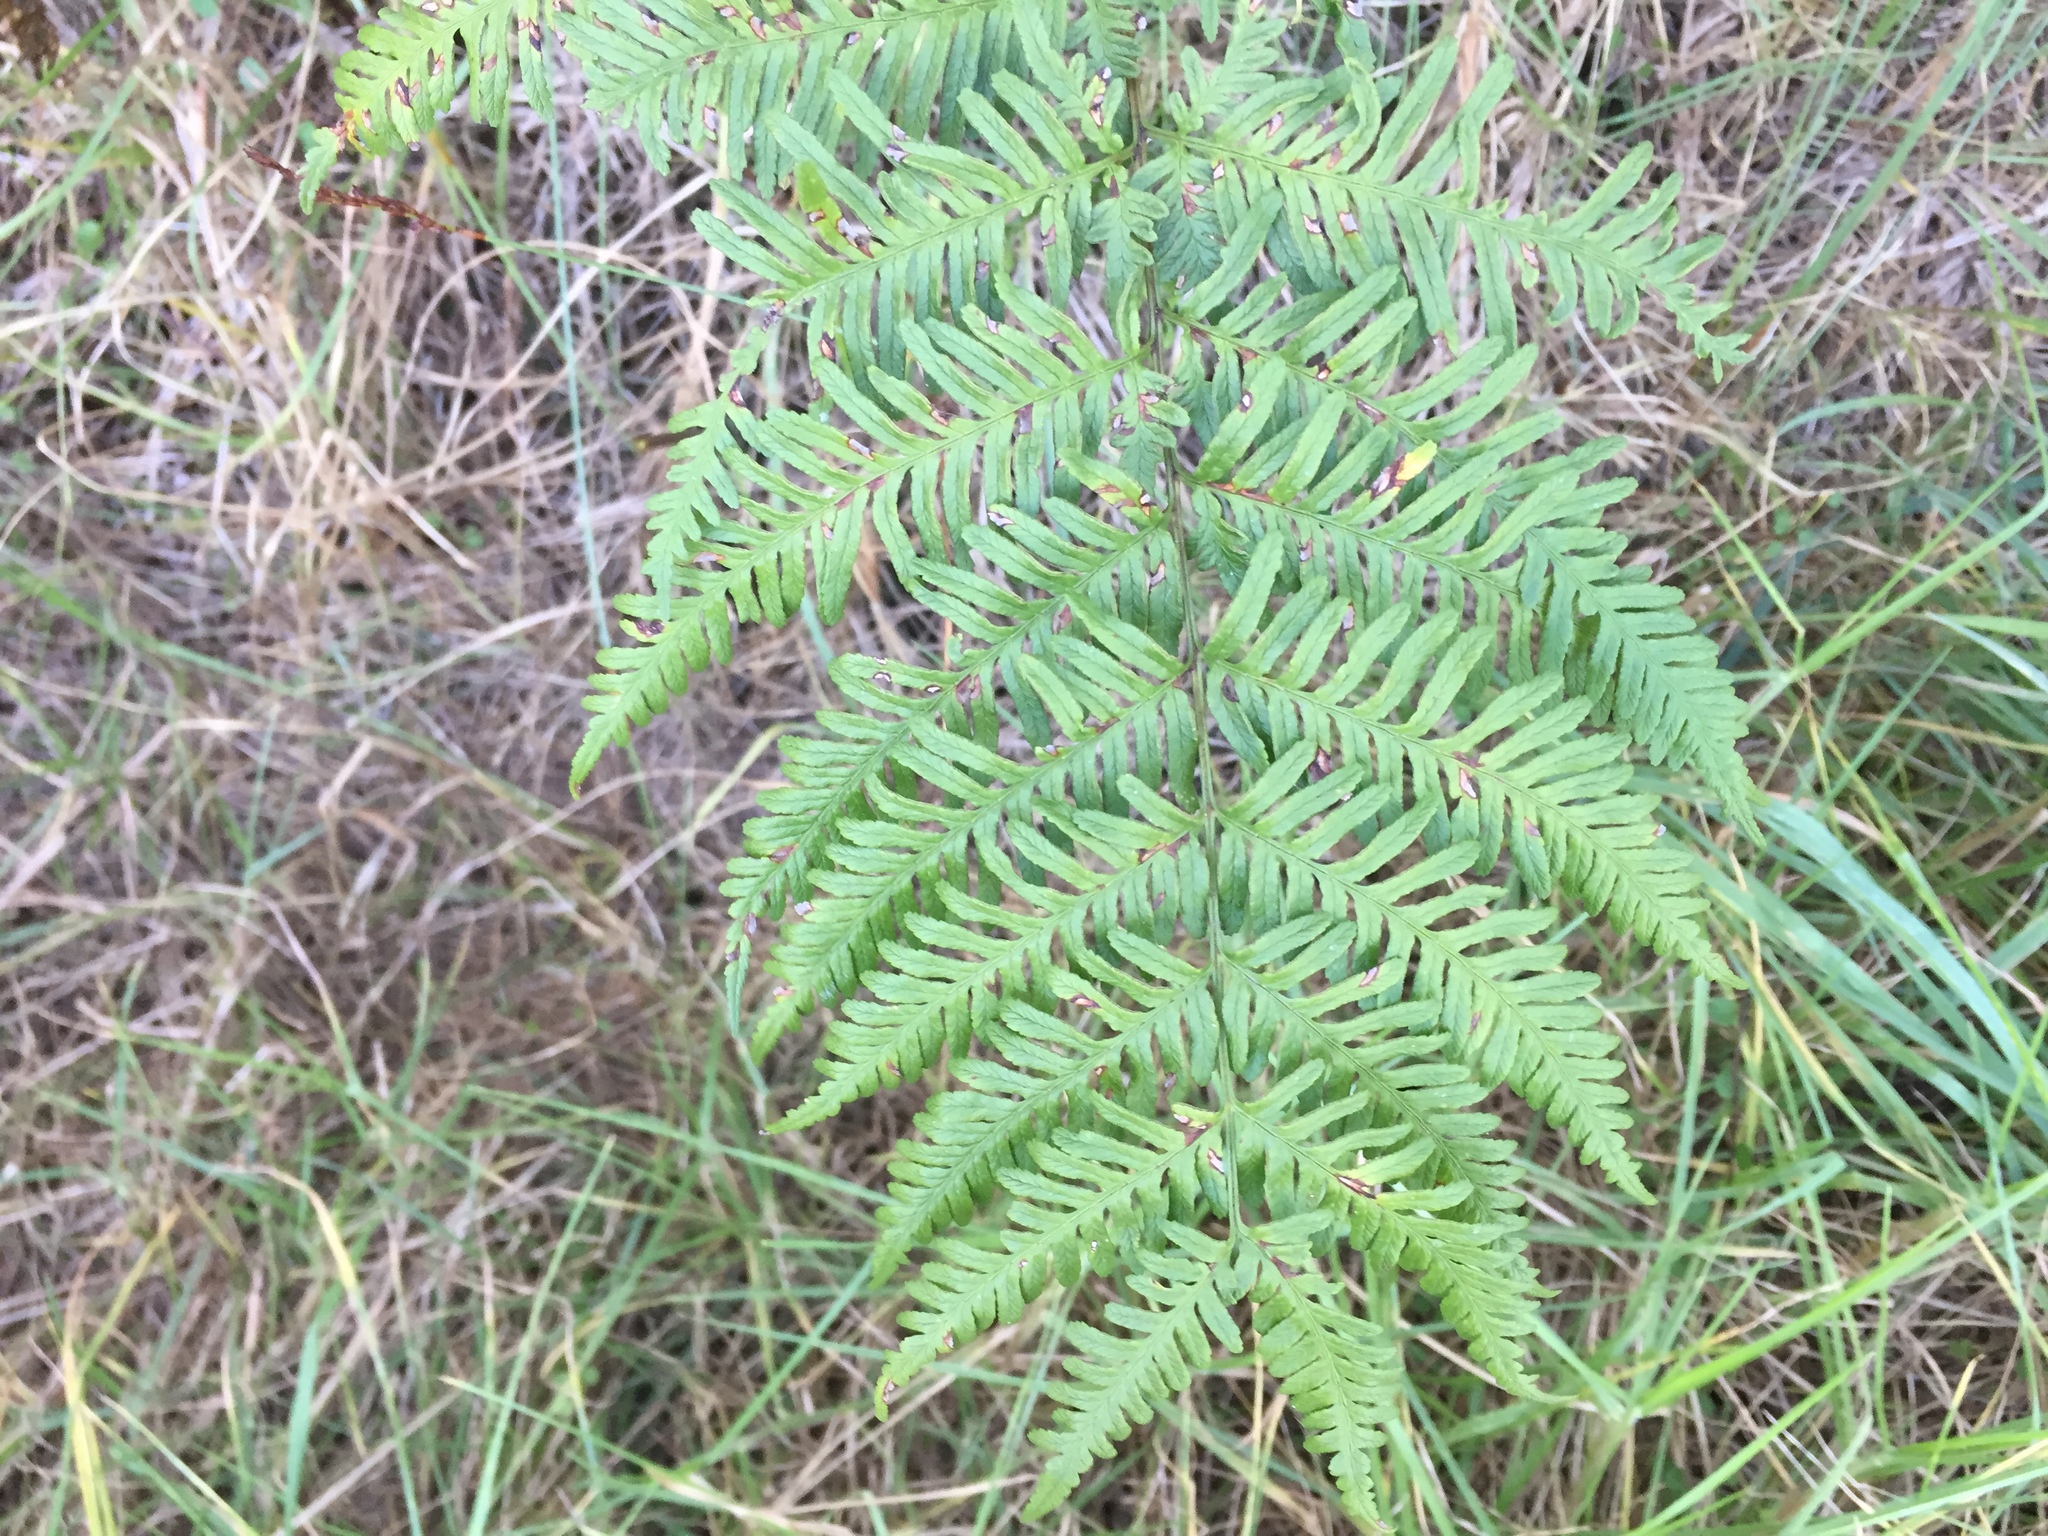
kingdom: Plantae
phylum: Tracheophyta
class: Polypodiopsida
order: Polypodiales
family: Pteridaceae
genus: Pteris
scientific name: Pteris tremula
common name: Australian brake
